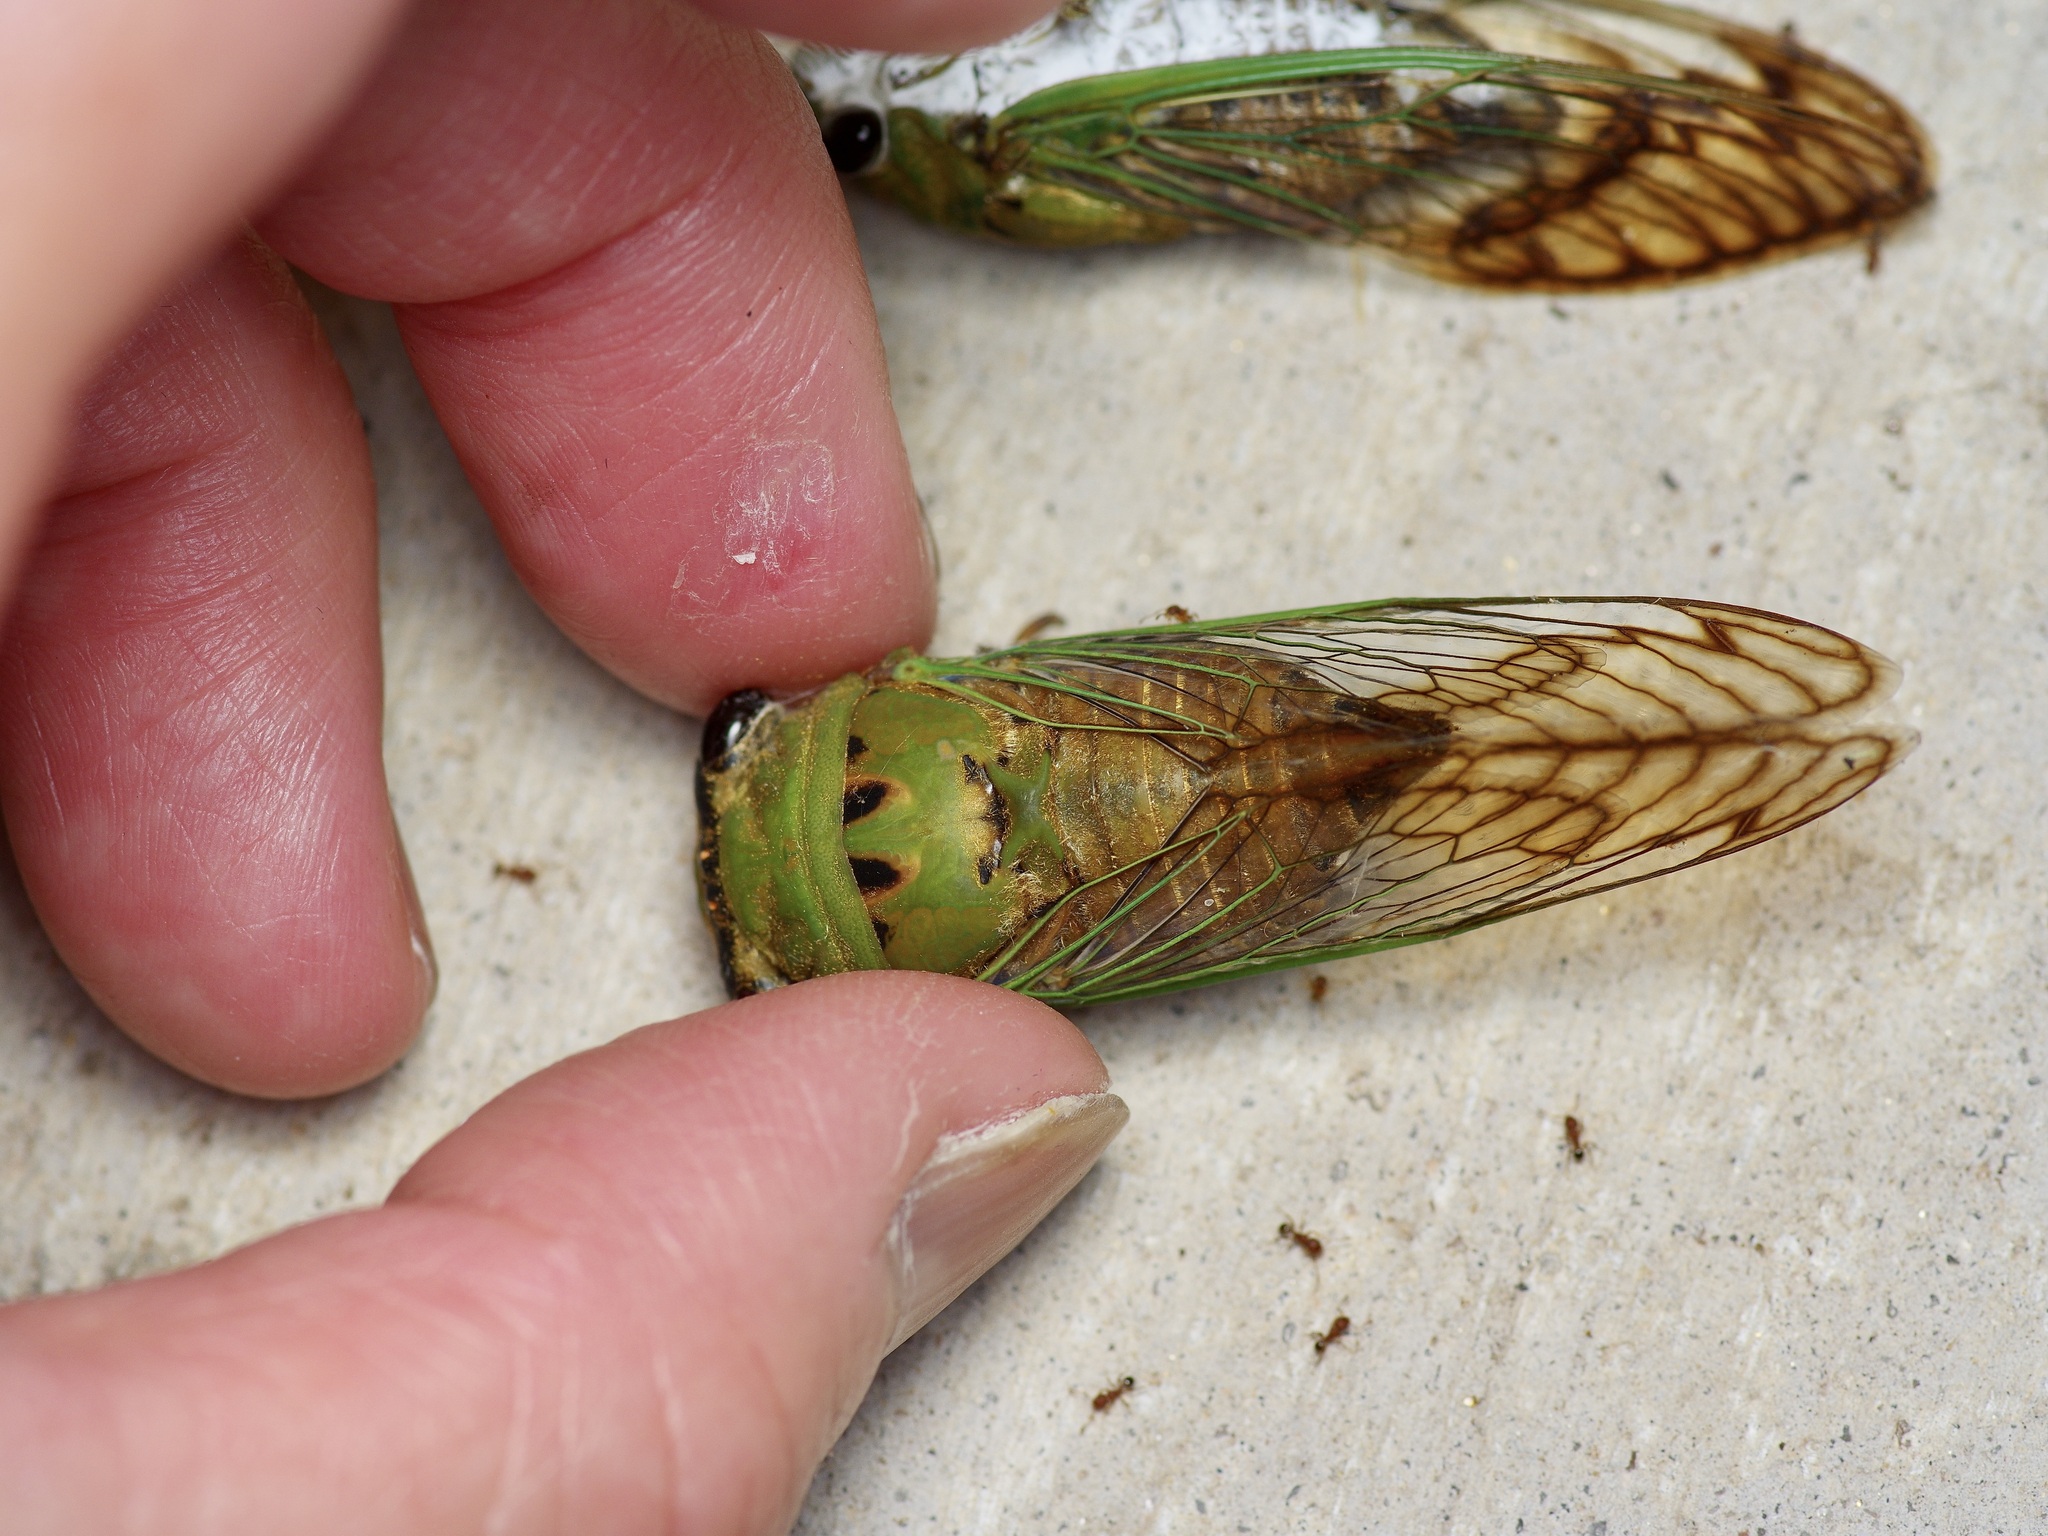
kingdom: Animalia
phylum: Arthropoda
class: Insecta
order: Hemiptera
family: Cicadidae
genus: Neotibicen
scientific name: Neotibicen superbus
